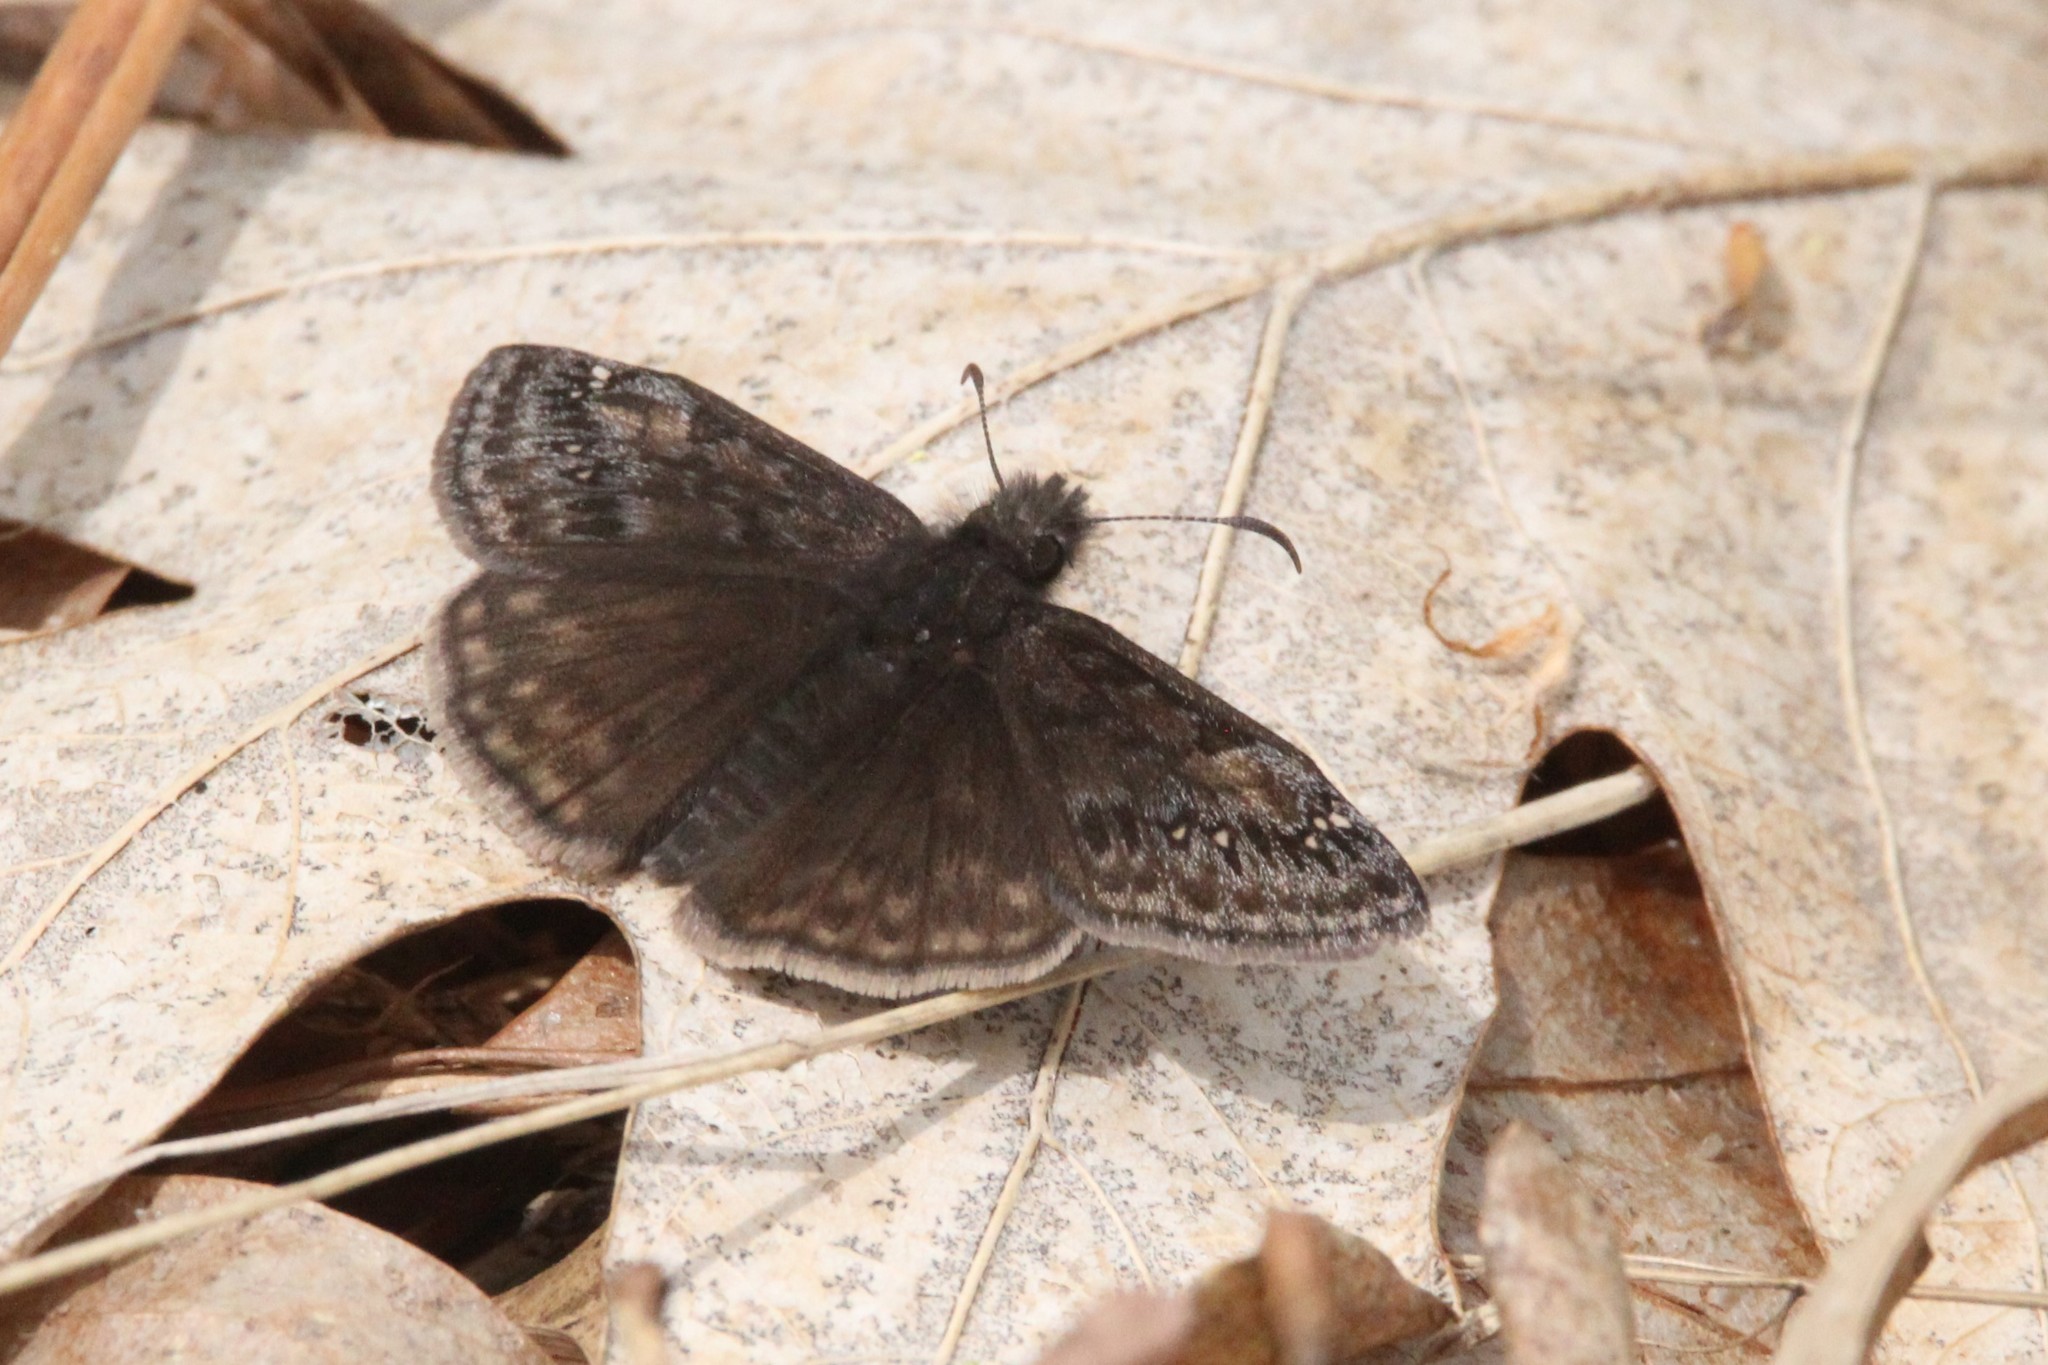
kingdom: Animalia
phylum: Arthropoda
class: Insecta
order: Lepidoptera
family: Hesperiidae
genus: Erynnis
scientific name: Erynnis juvenalis
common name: Juvenal's duskywing
